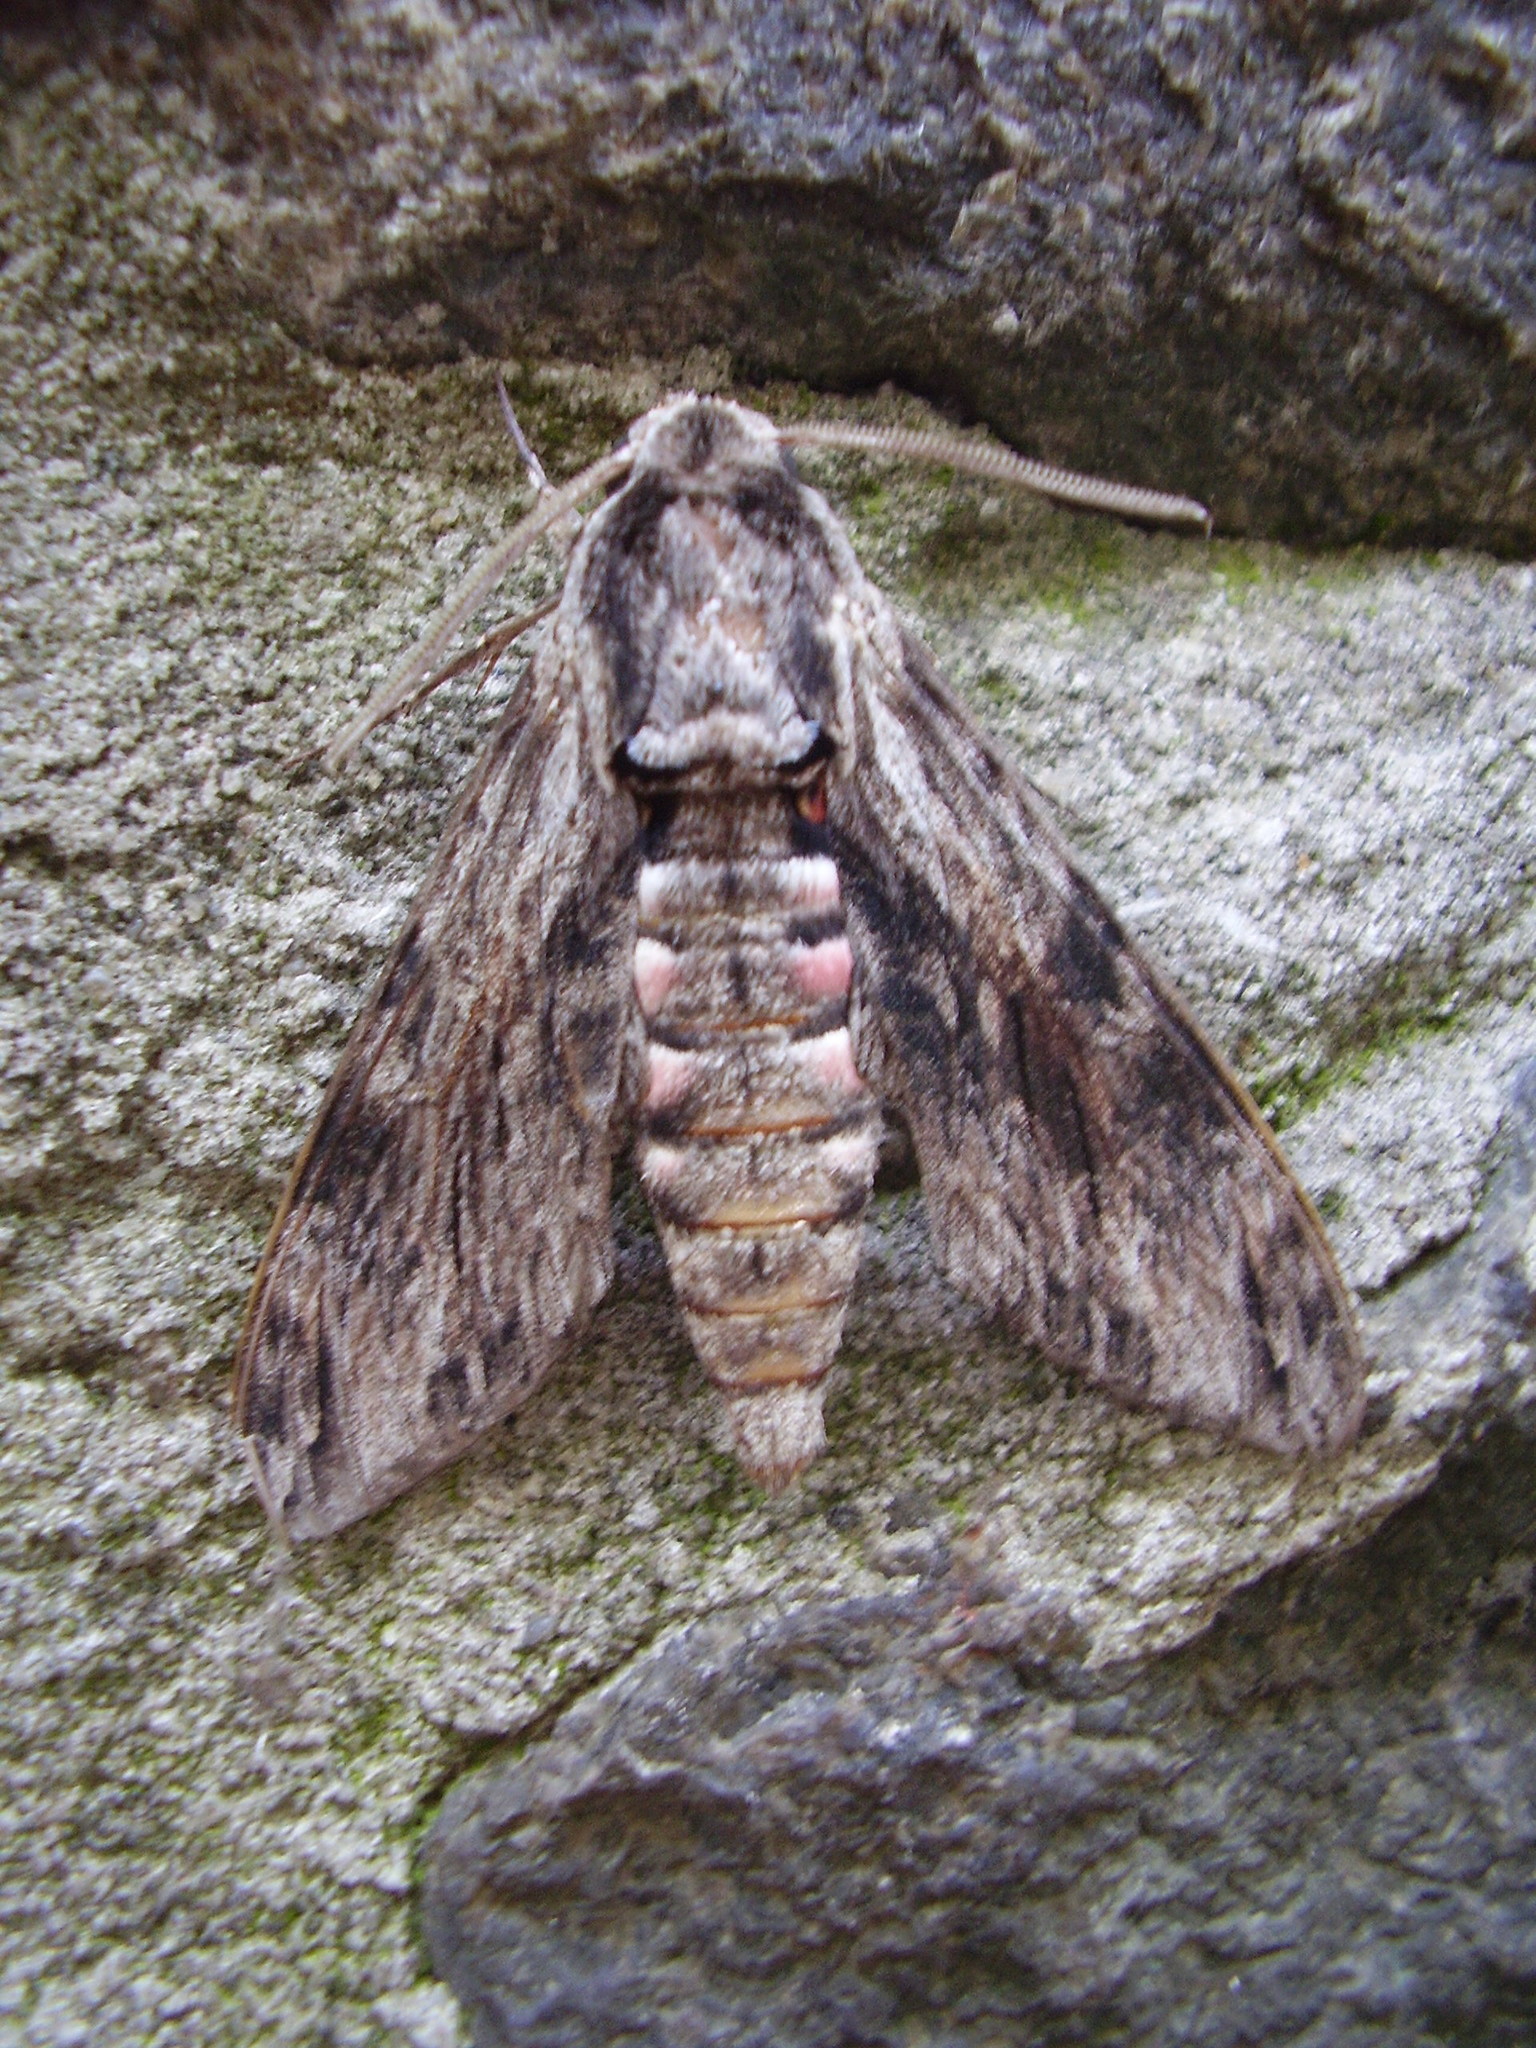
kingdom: Animalia
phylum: Arthropoda
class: Insecta
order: Lepidoptera
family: Sphingidae
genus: Agrius
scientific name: Agrius convolvuli
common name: Convolvulus hawkmoth
